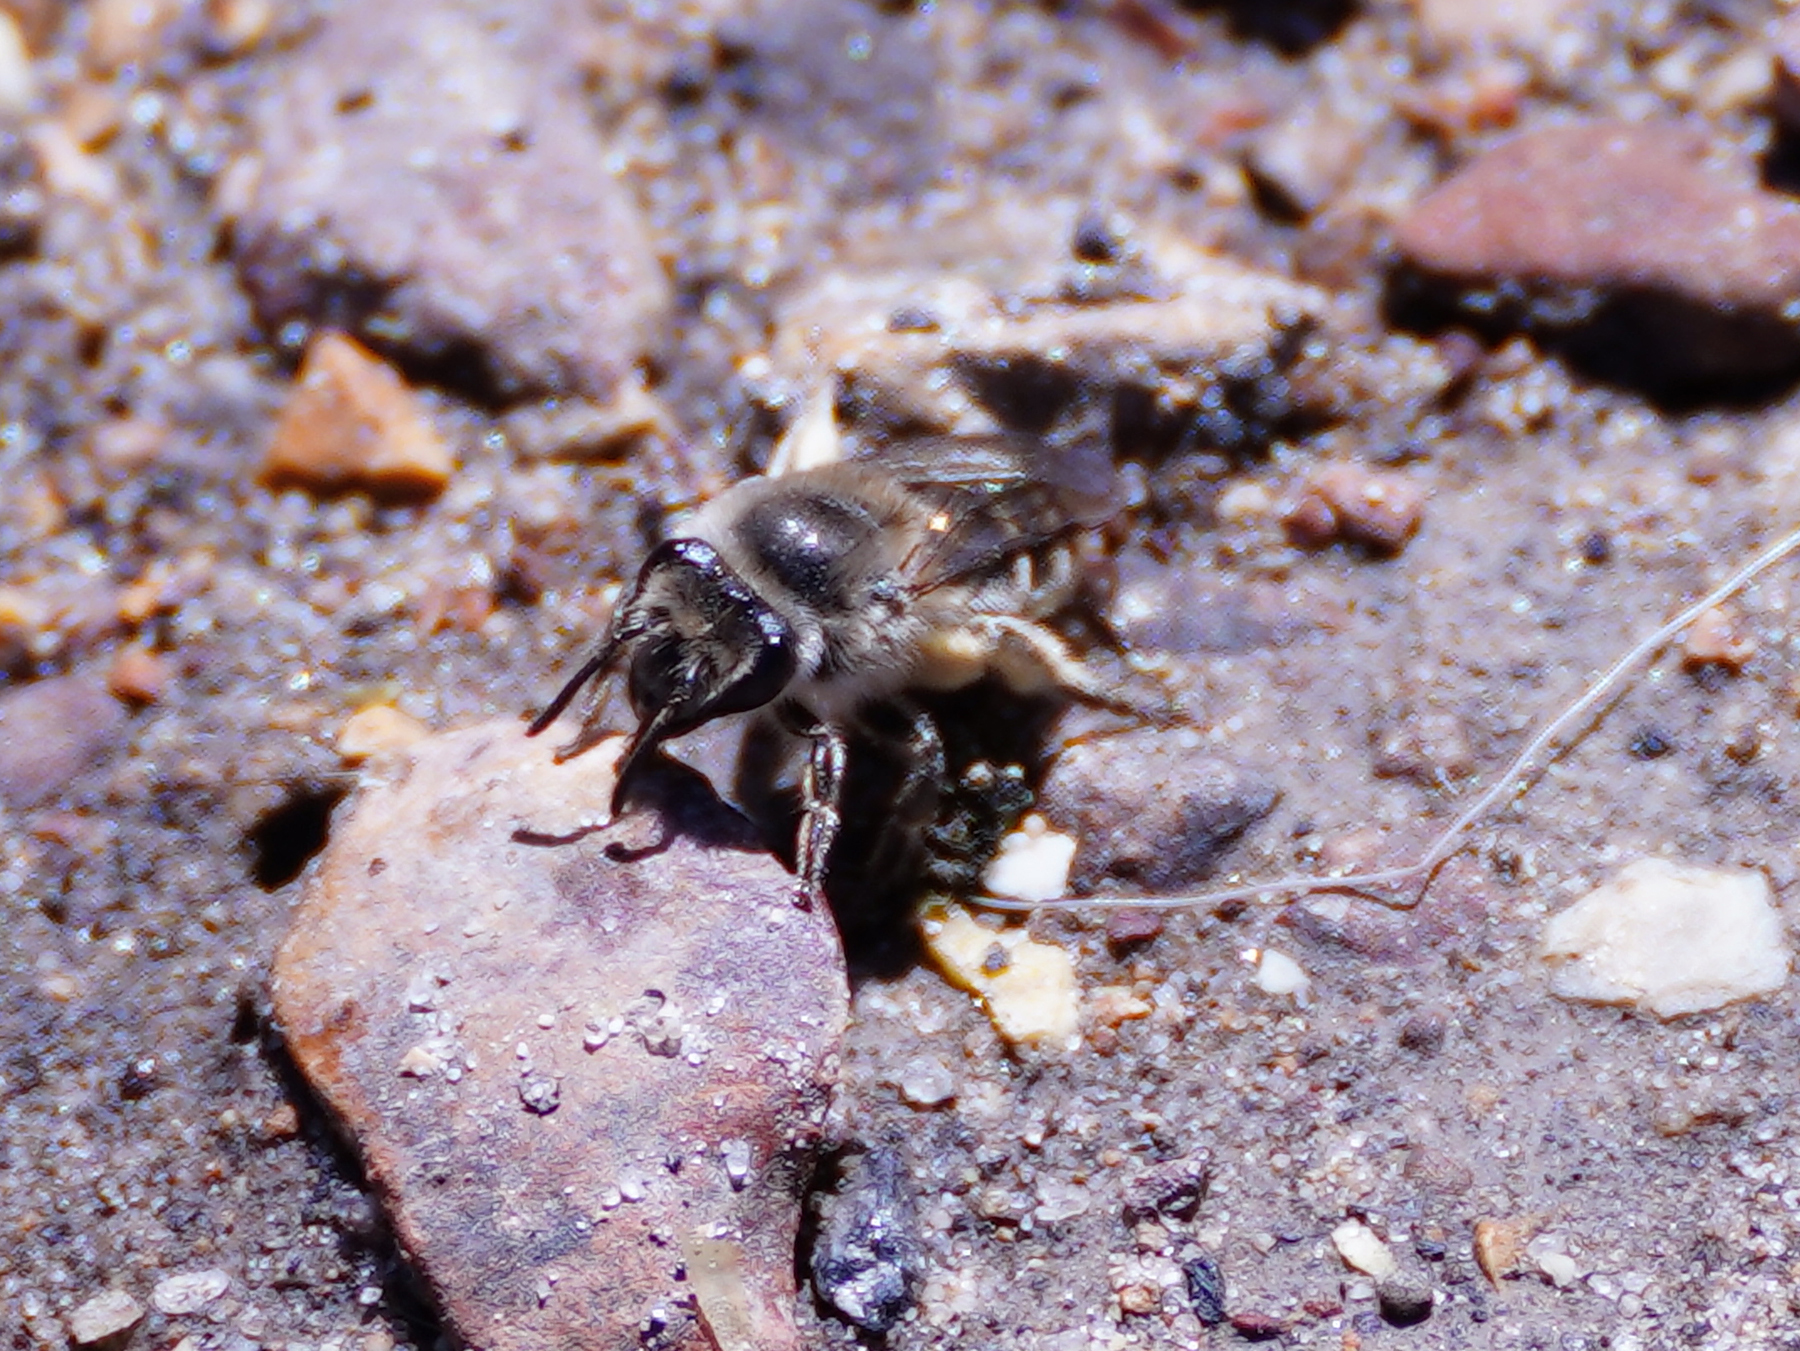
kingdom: Animalia
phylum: Arthropoda
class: Insecta
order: Hymenoptera
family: Colletidae
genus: Colletes
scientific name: Colletes inaequalis
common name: Unequal cellophane bee
